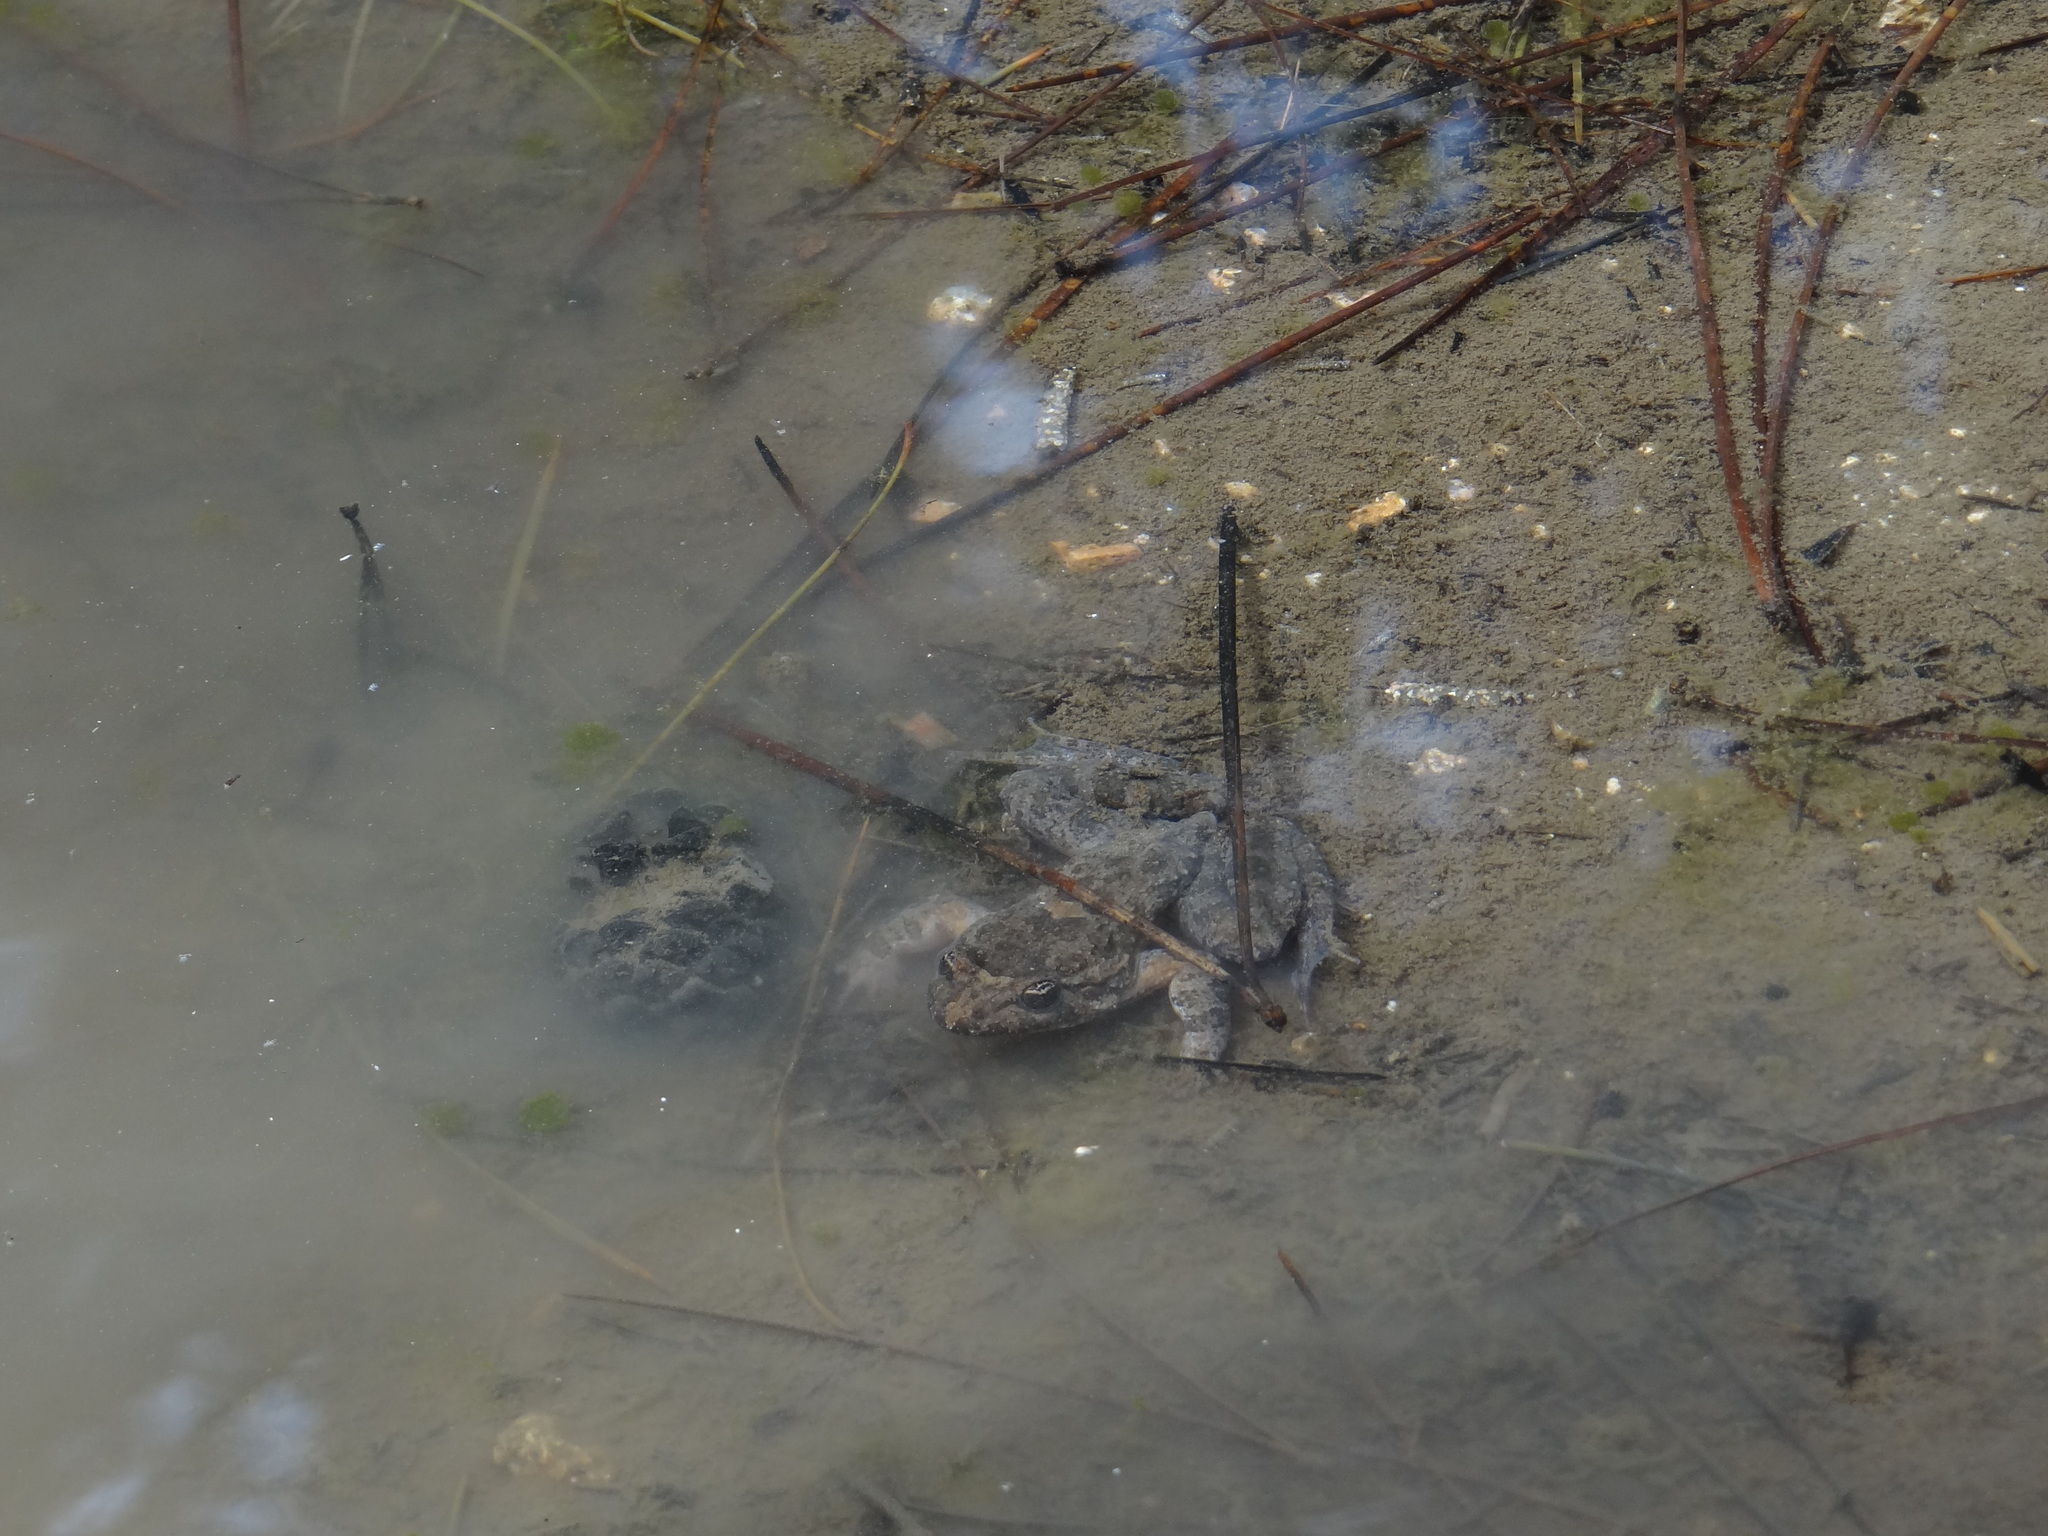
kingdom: Animalia
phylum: Chordata
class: Amphibia
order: Anura
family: Alytidae
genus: Discoglossus
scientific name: Discoglossus sardus
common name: Sardinia painted frog
